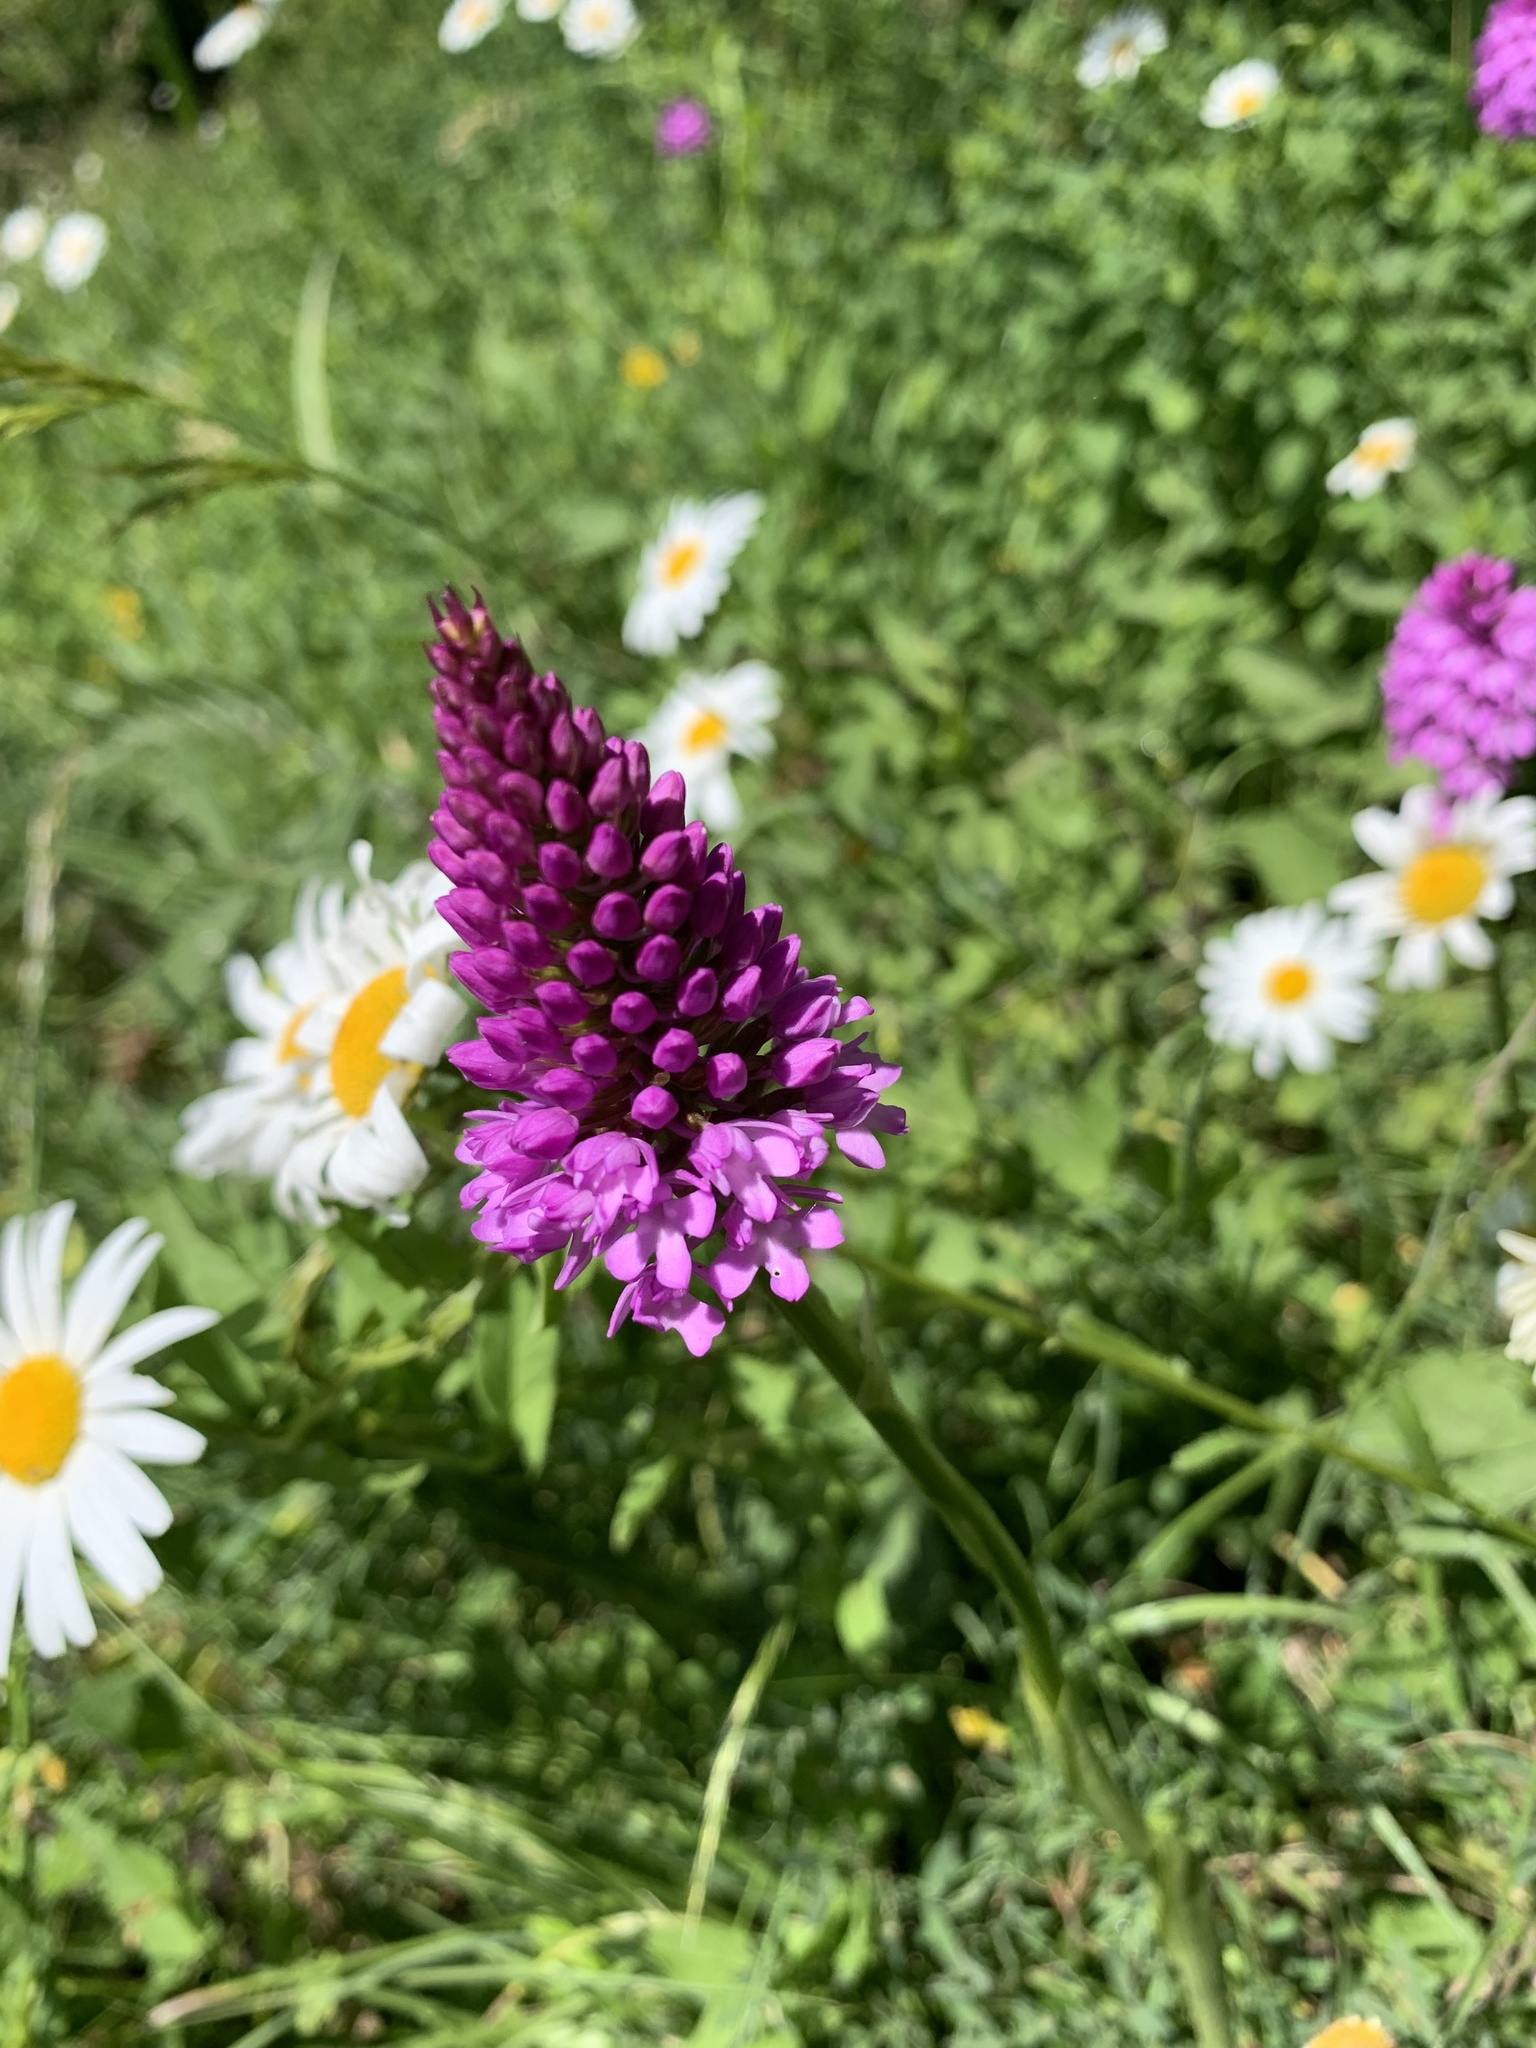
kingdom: Plantae
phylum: Tracheophyta
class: Liliopsida
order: Asparagales
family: Orchidaceae
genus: Anacamptis
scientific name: Anacamptis pyramidalis
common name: Pyramidal orchid
